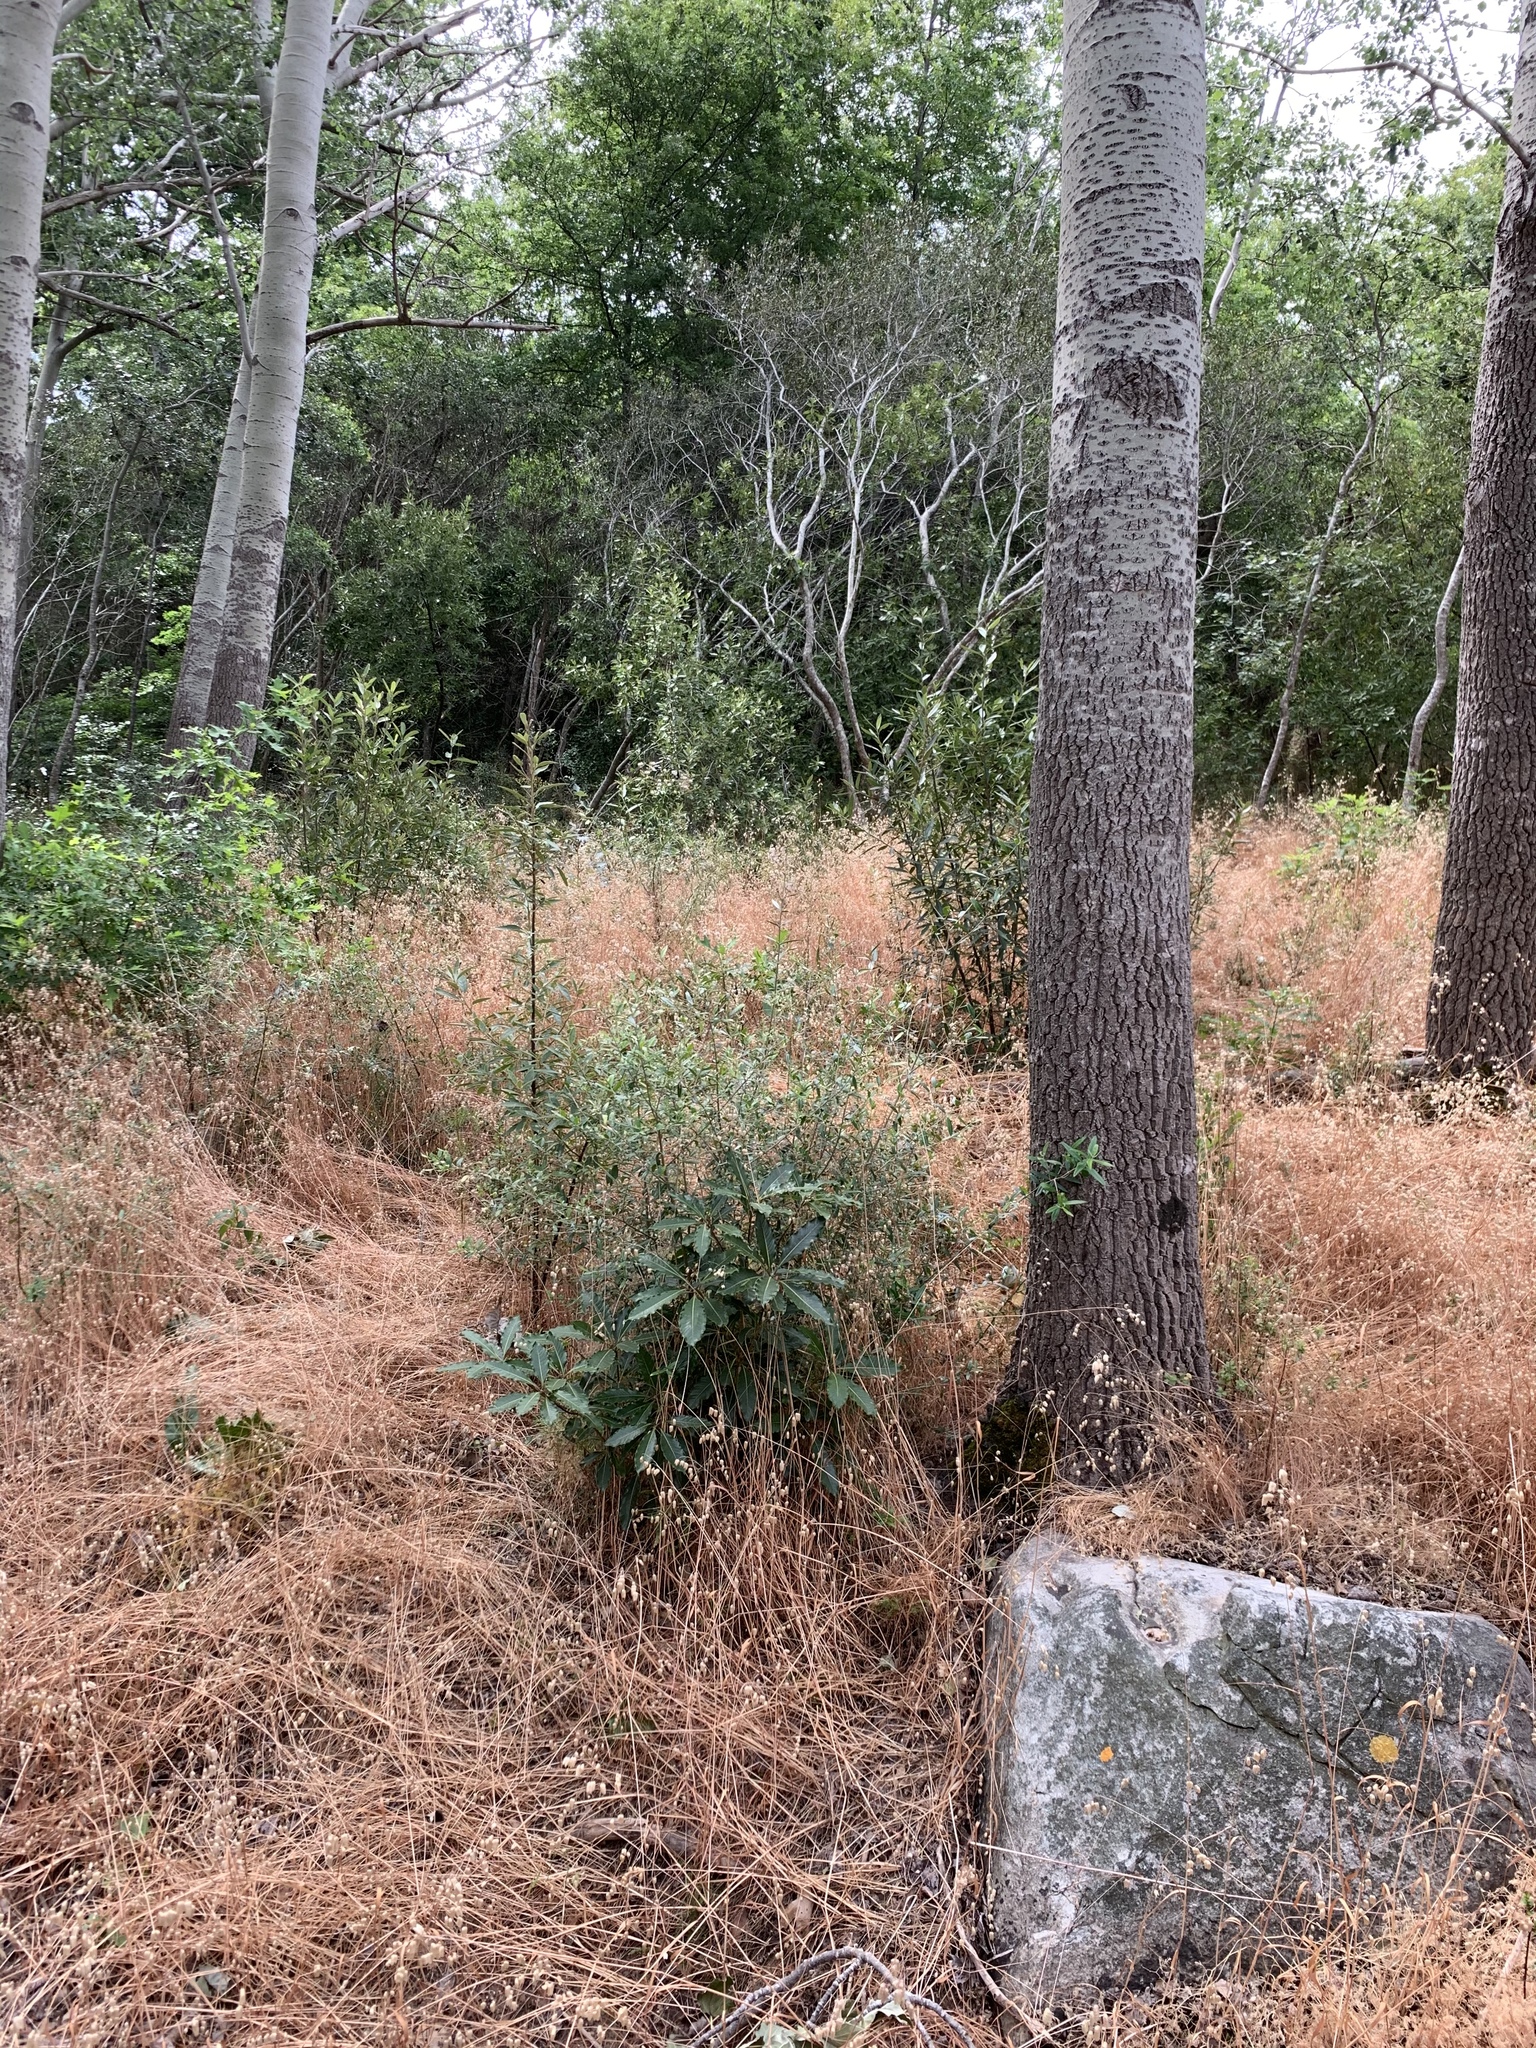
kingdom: Plantae
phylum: Tracheophyta
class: Magnoliopsida
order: Apiales
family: Pittosporaceae
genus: Pittosporum
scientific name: Pittosporum undulatum
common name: Australian cheesewood
